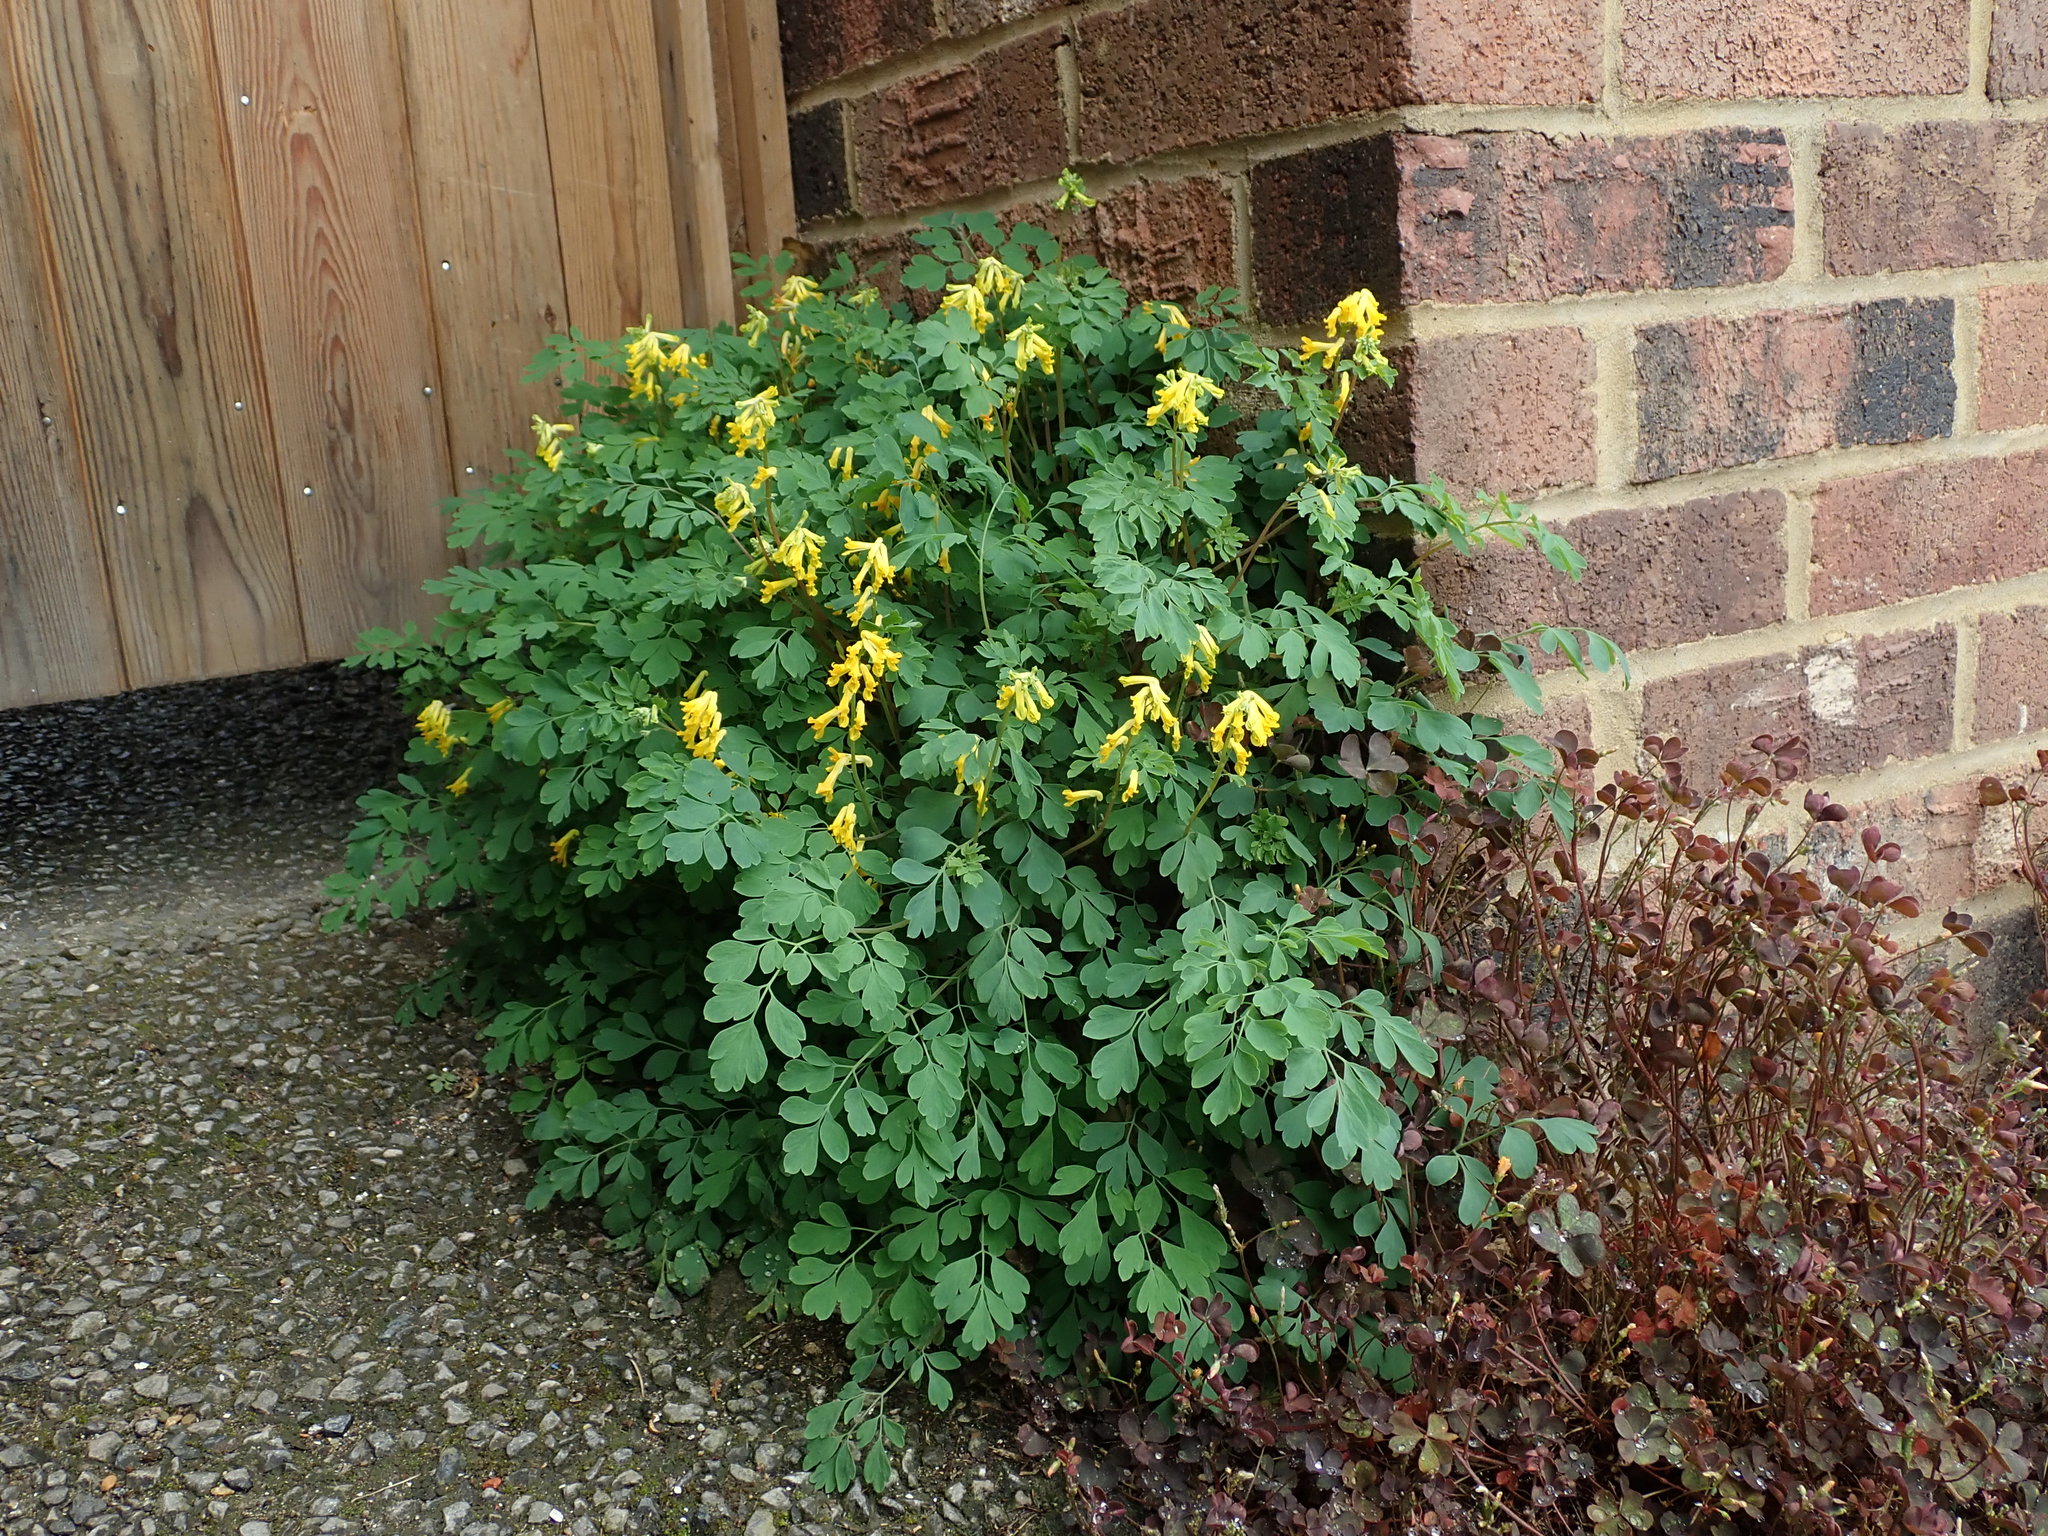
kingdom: Plantae
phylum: Tracheophyta
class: Magnoliopsida
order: Ranunculales
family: Papaveraceae
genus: Pseudofumaria
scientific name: Pseudofumaria lutea
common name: Yellow corydalis
